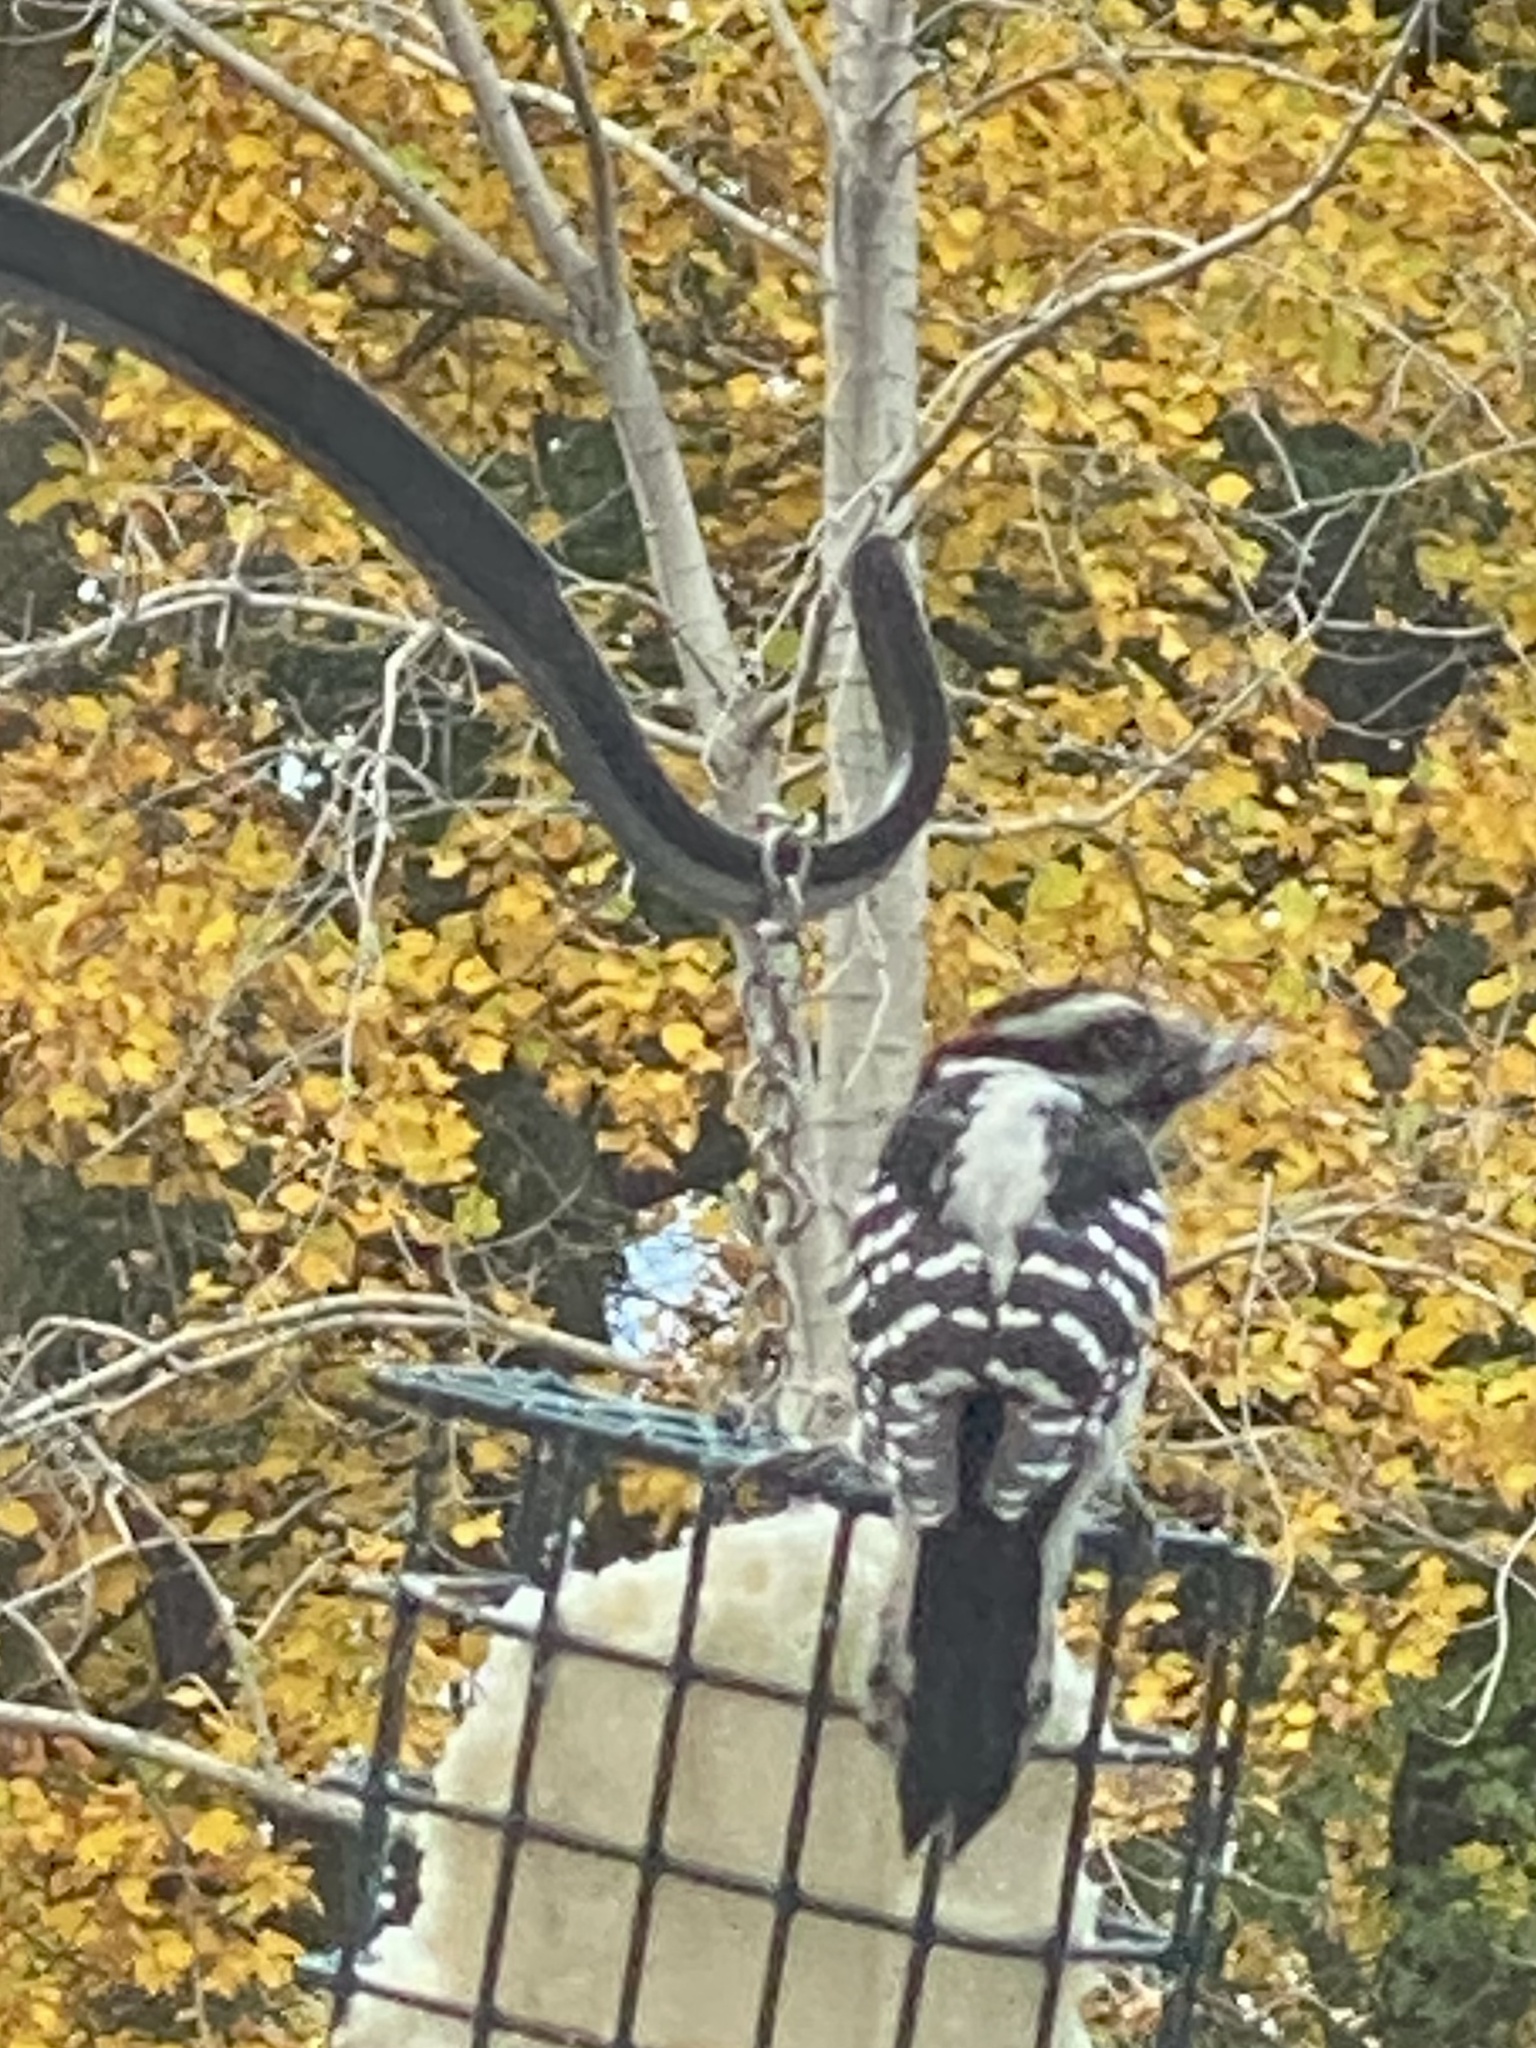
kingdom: Animalia
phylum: Chordata
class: Aves
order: Piciformes
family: Picidae
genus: Dryobates
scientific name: Dryobates pubescens
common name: Downy woodpecker
